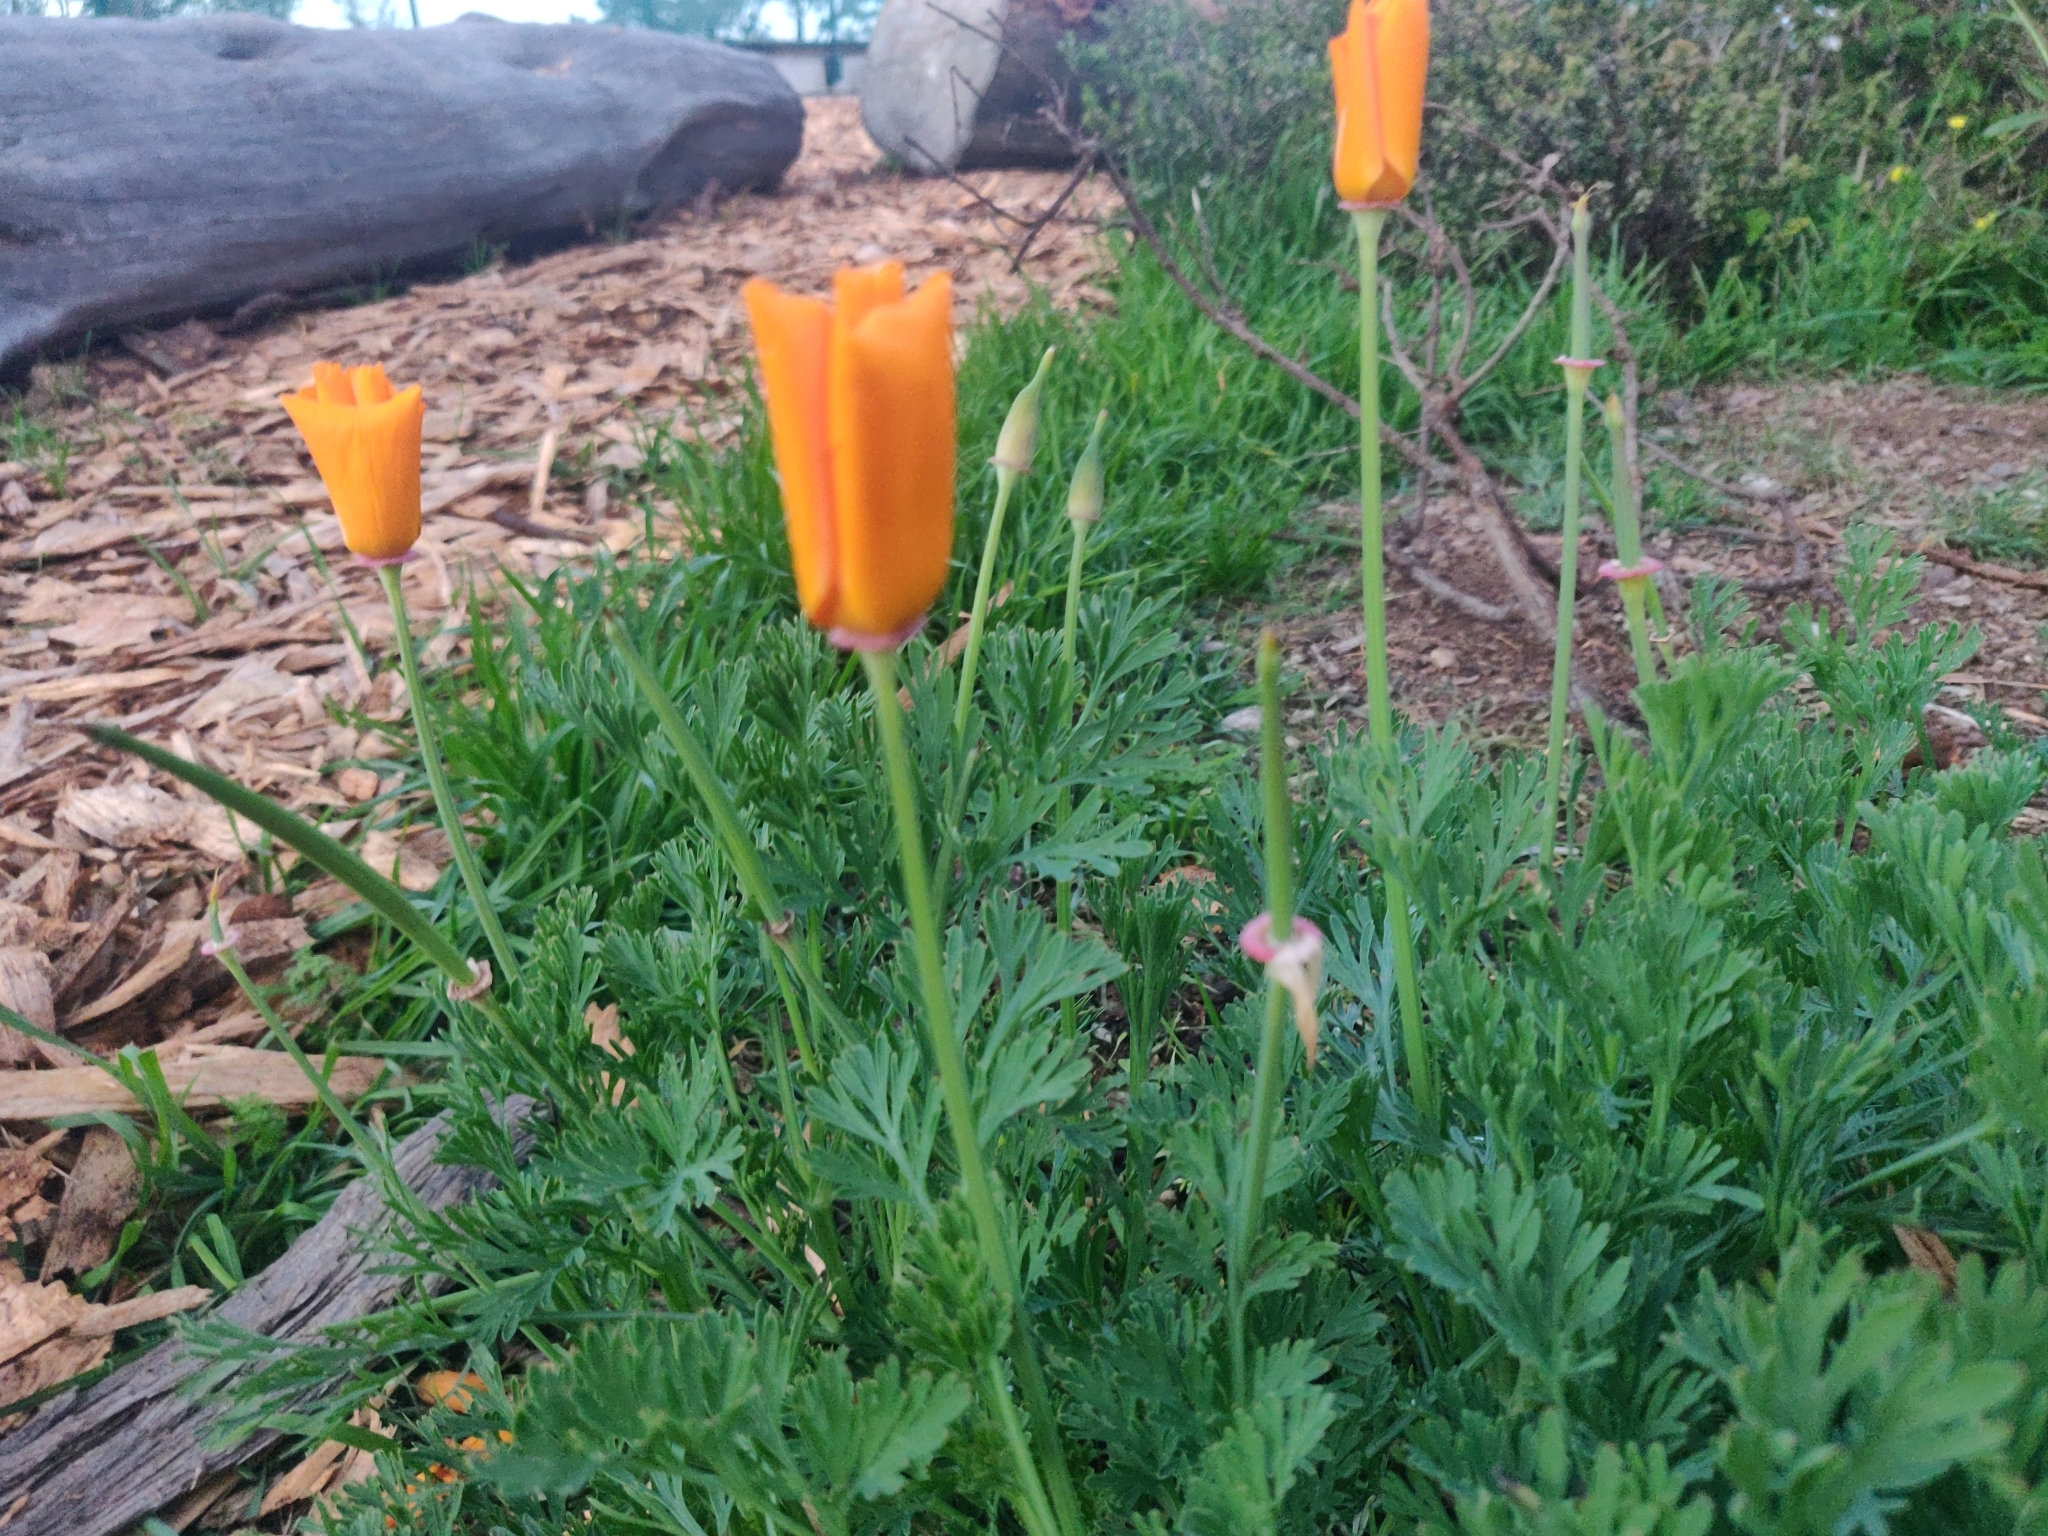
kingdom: Plantae
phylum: Tracheophyta
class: Magnoliopsida
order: Ranunculales
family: Papaveraceae
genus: Eschscholzia
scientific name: Eschscholzia californica
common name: California poppy
